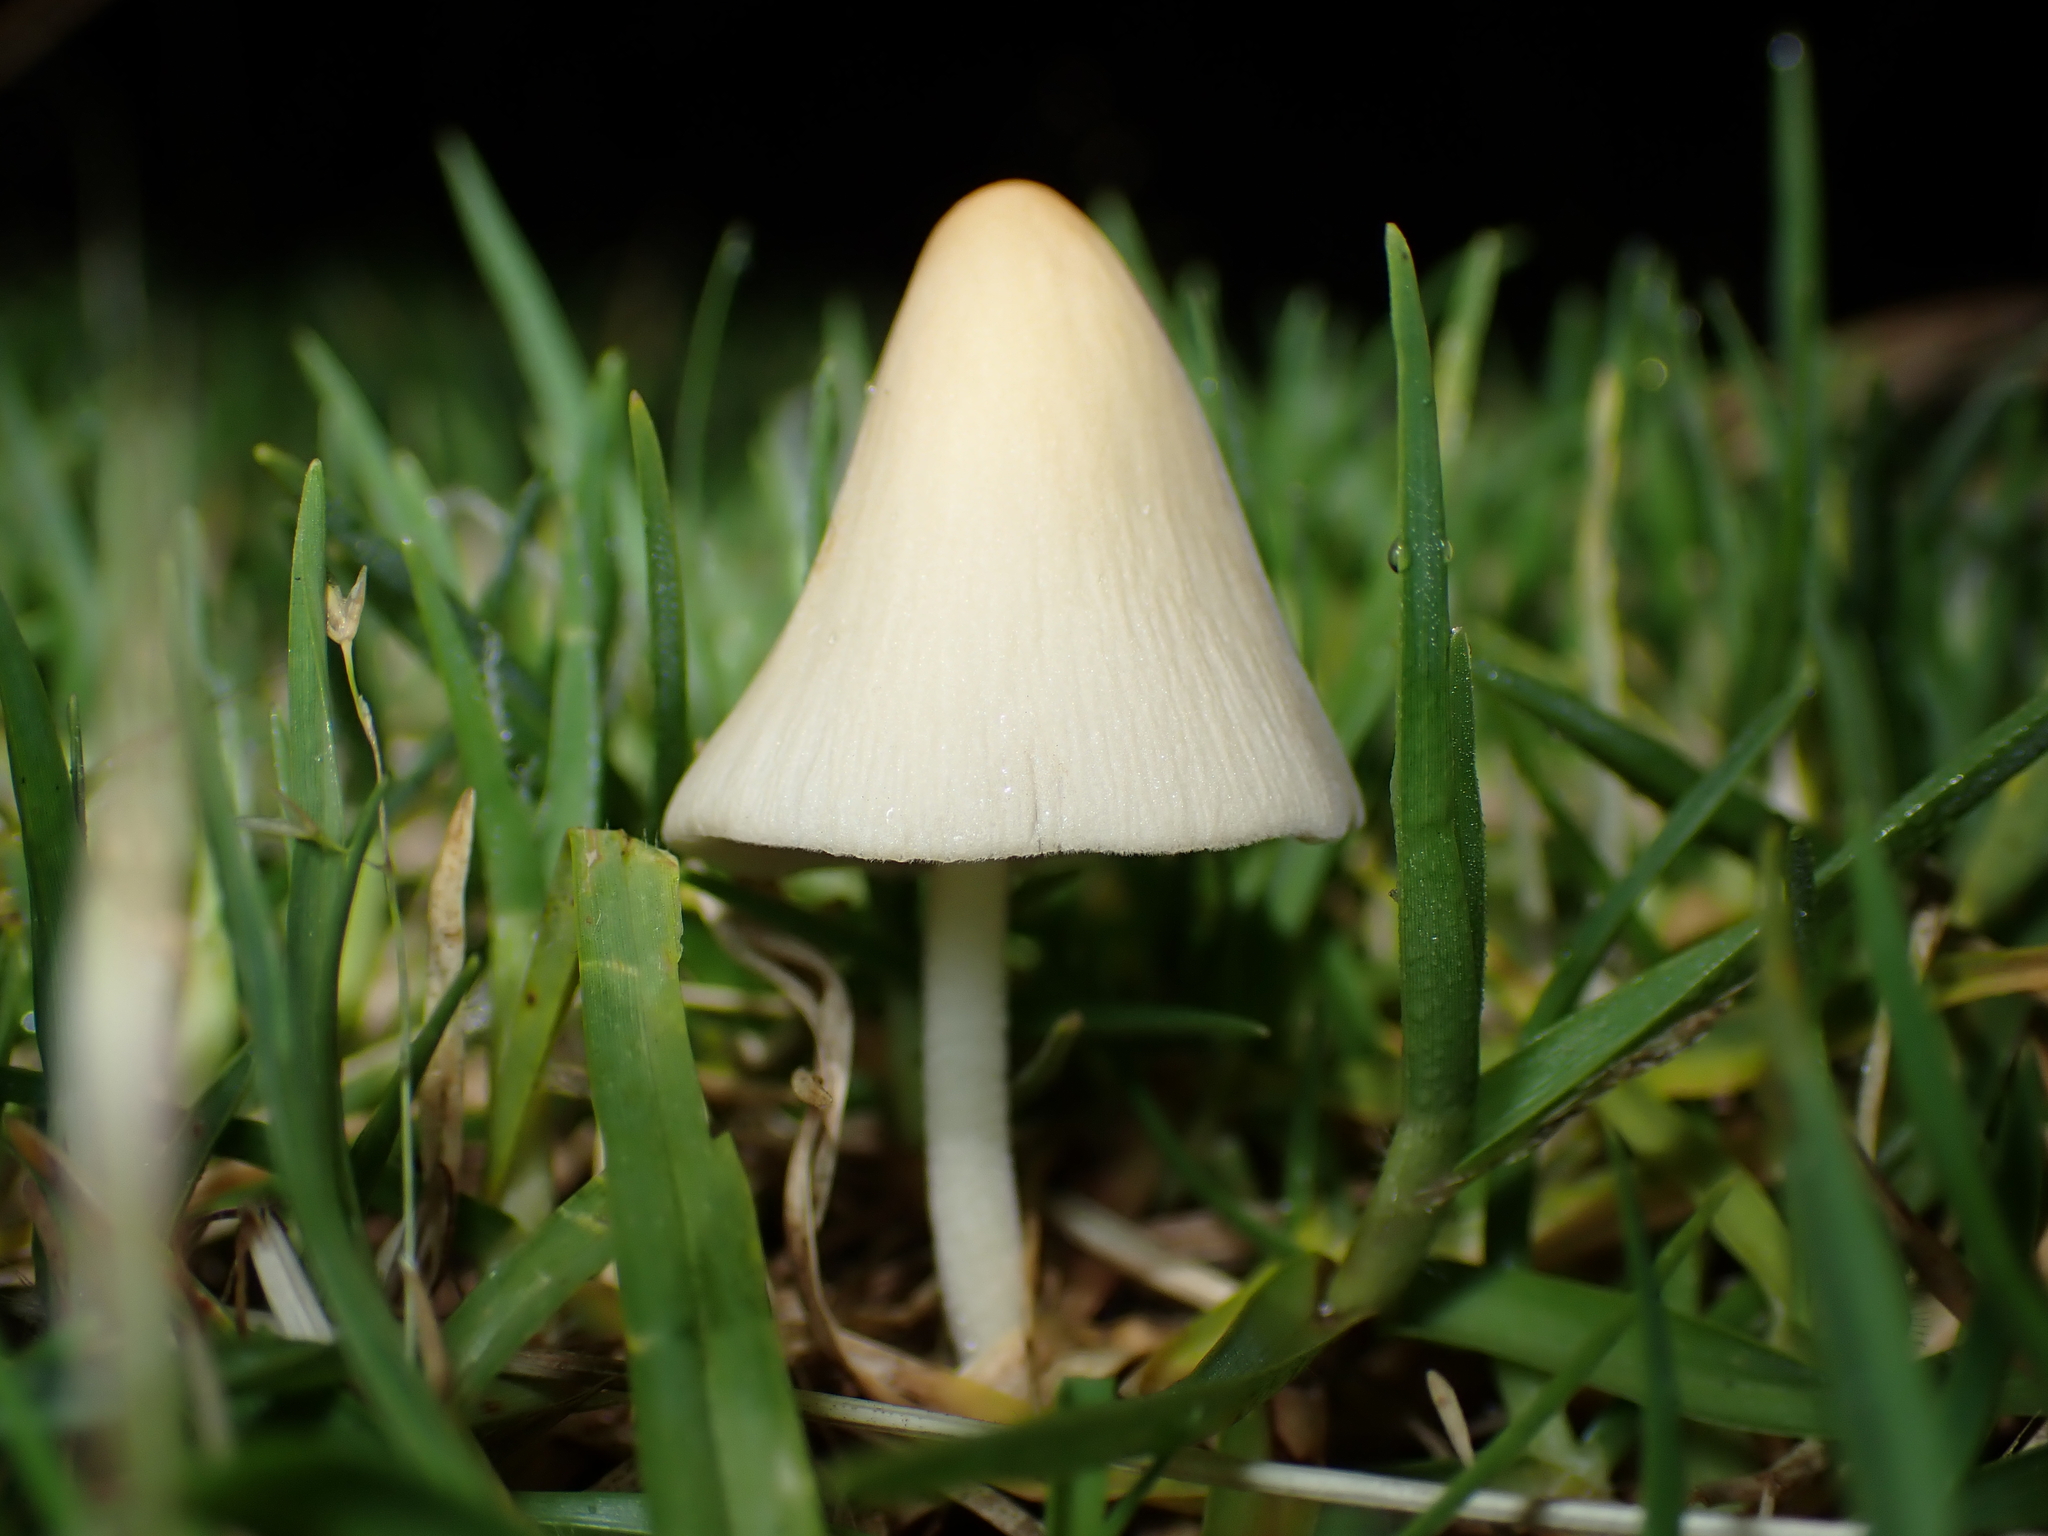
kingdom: Fungi
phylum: Basidiomycota
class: Agaricomycetes
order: Agaricales
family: Bolbitiaceae
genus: Conocybe
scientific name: Conocybe apala
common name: Milky conecap
